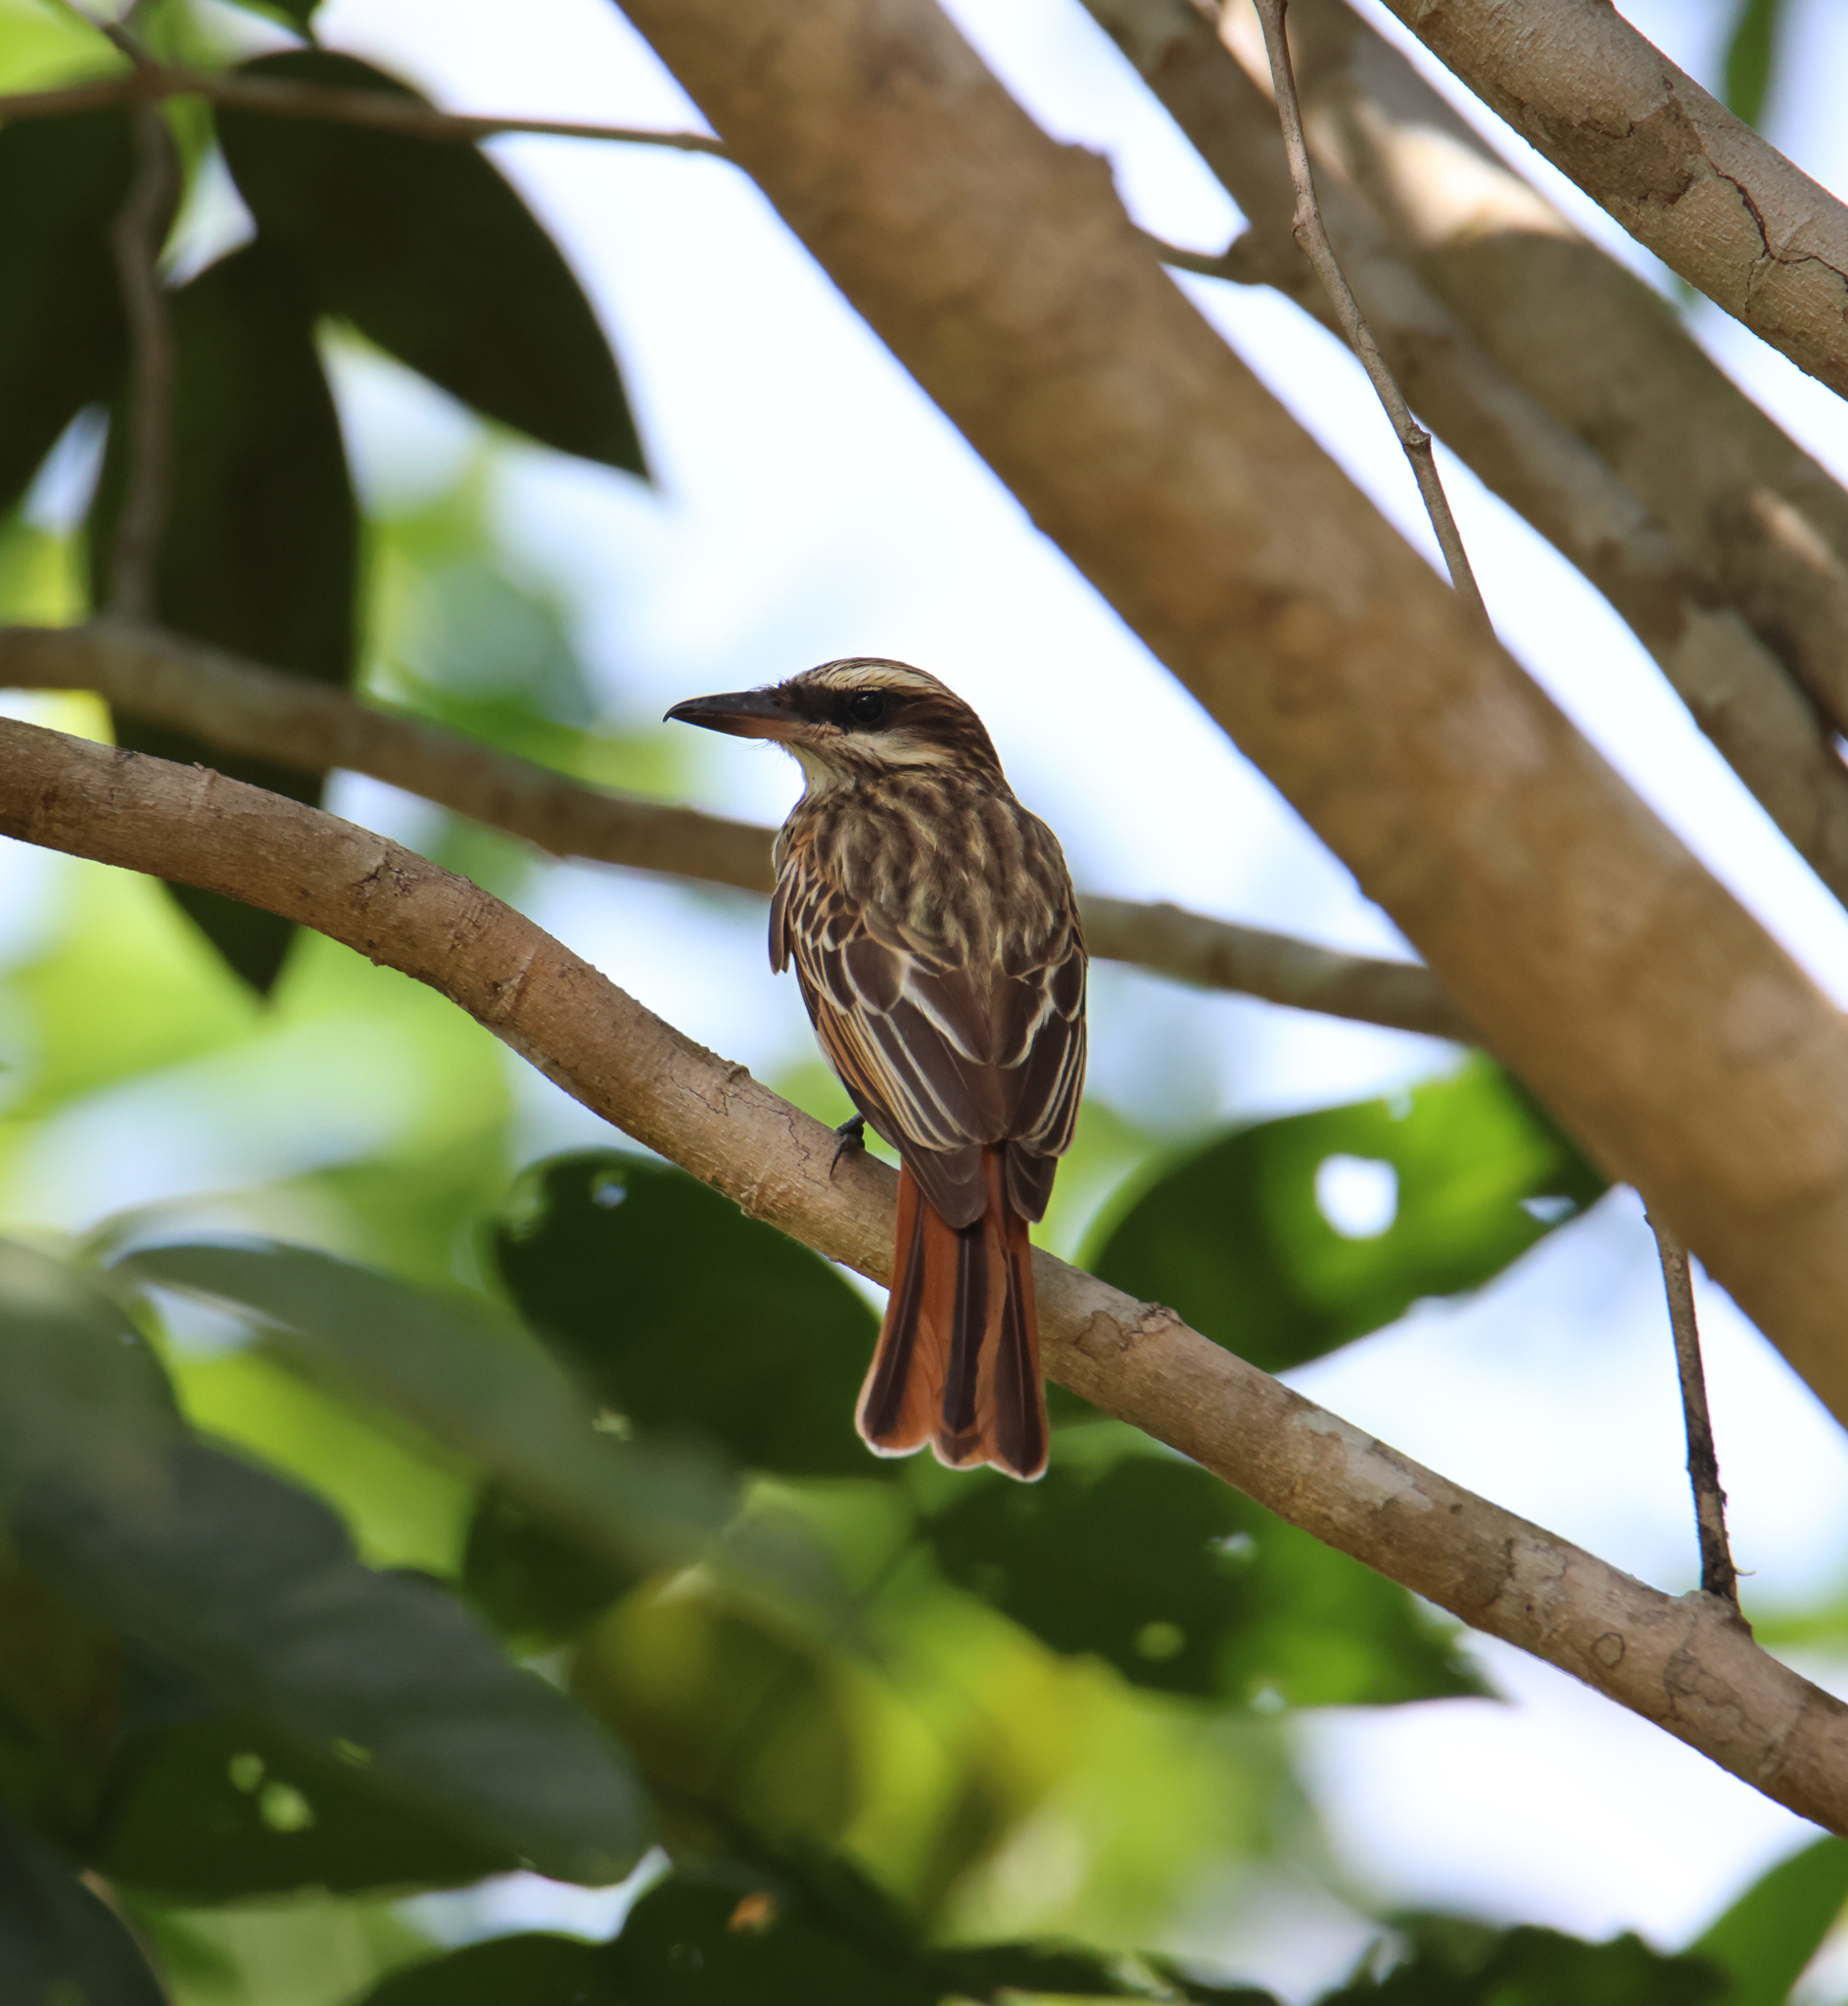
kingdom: Animalia
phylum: Chordata
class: Aves
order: Passeriformes
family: Tyrannidae
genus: Myiodynastes
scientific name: Myiodynastes maculatus
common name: Streaked flycatcher
